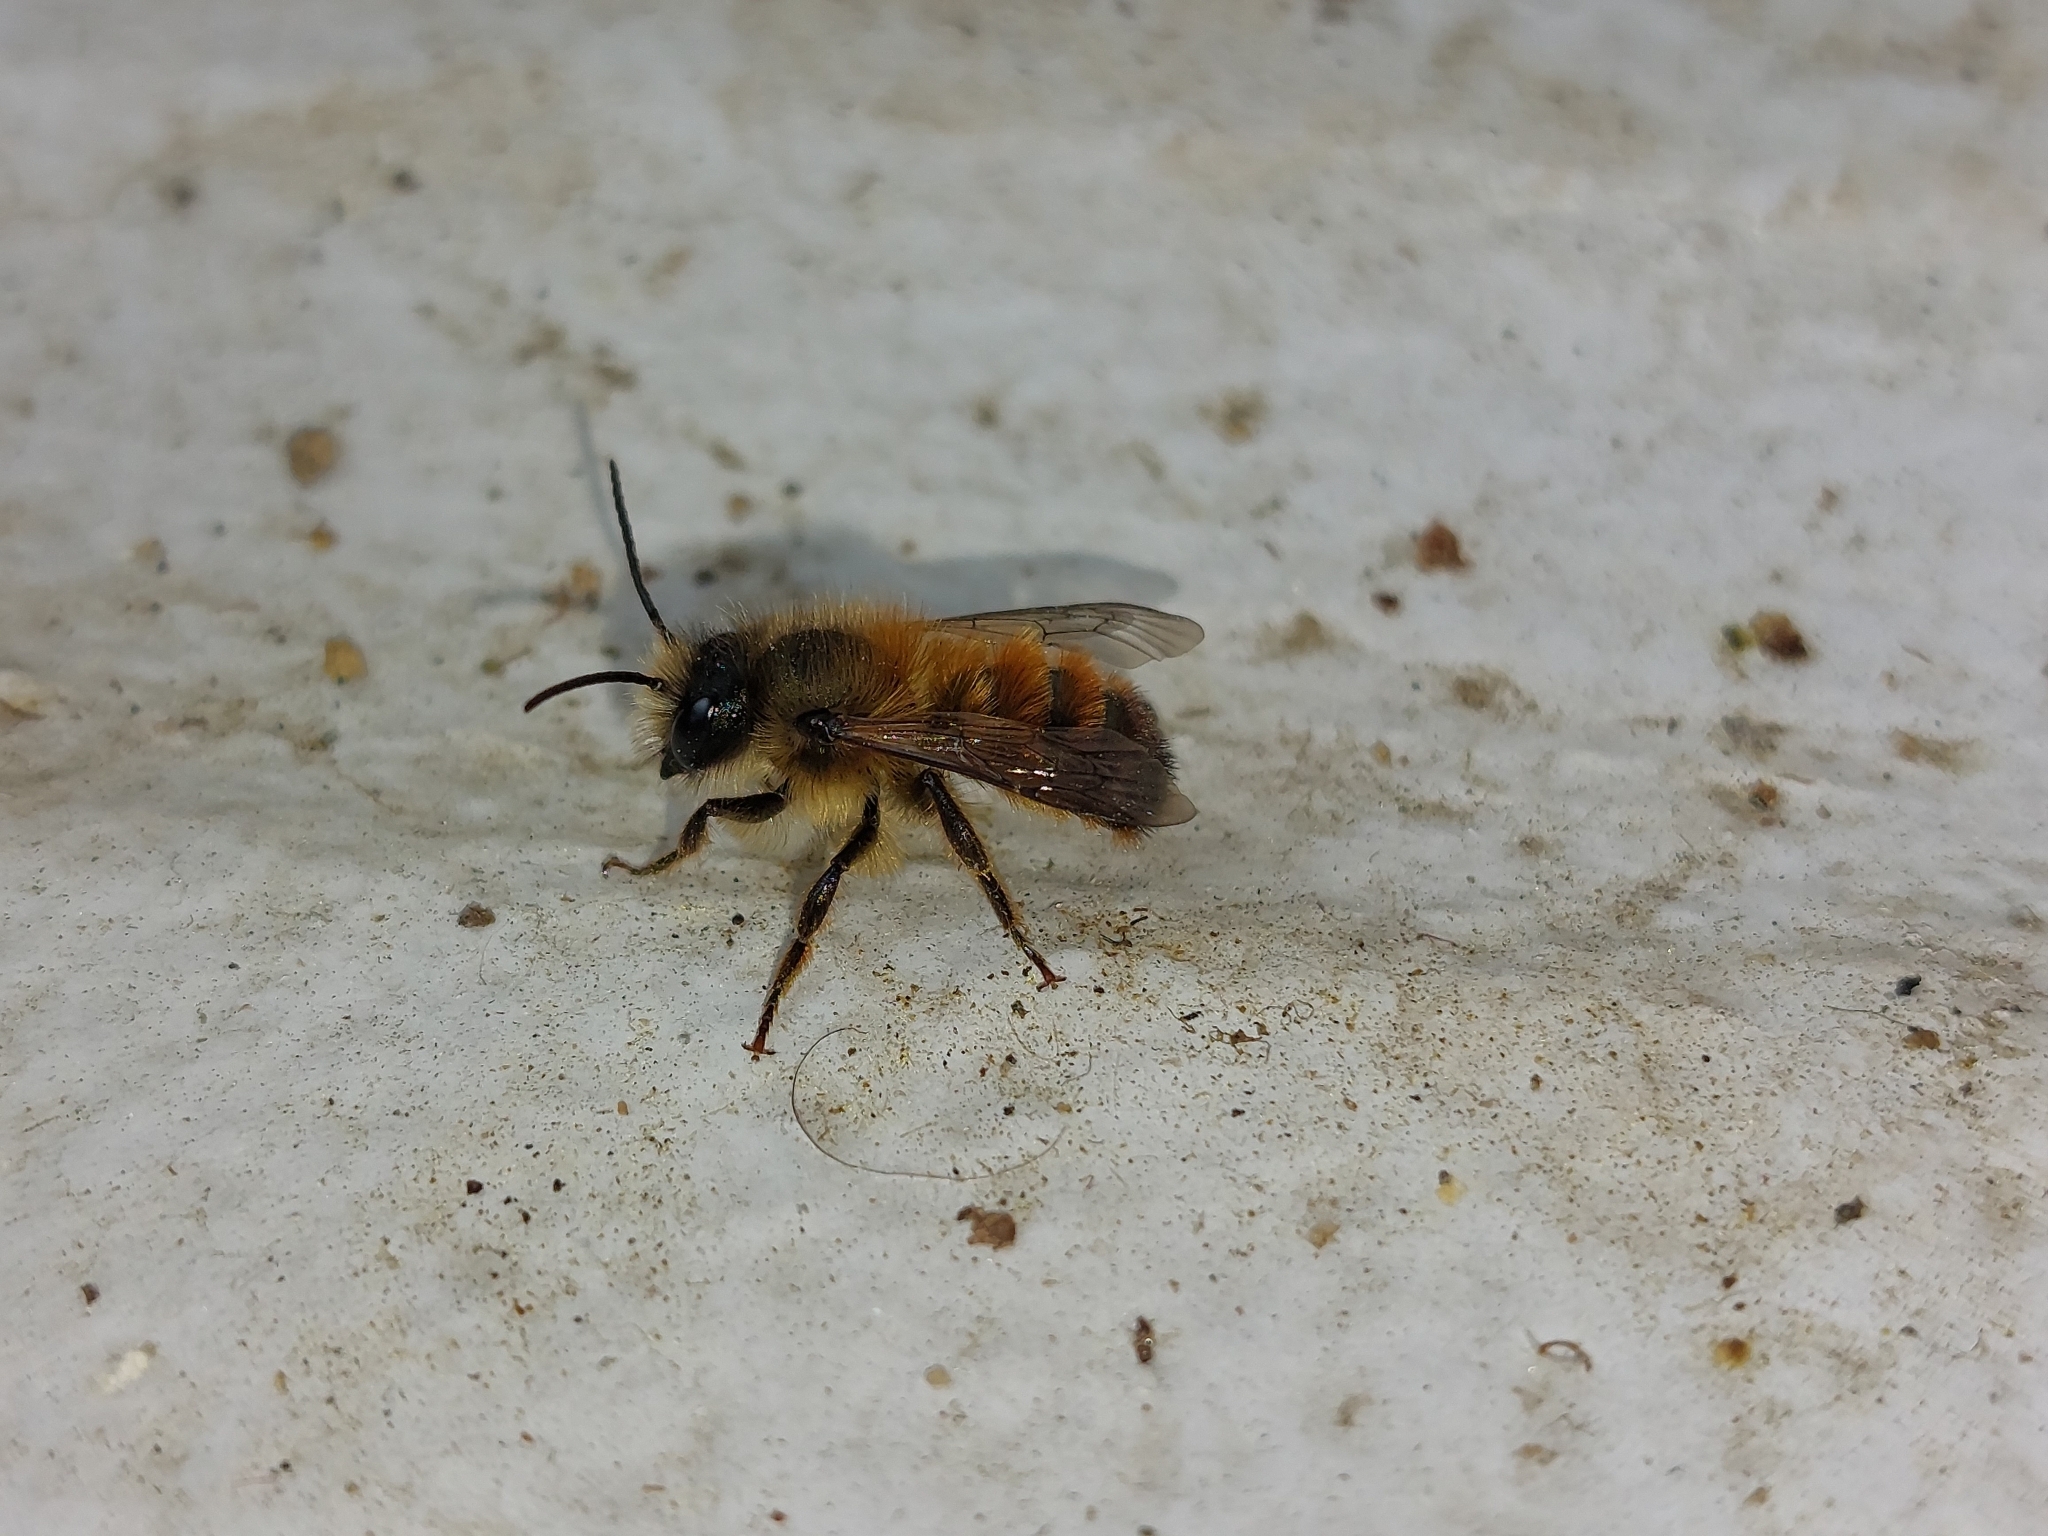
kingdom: Animalia
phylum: Arthropoda
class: Insecta
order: Hymenoptera
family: Megachilidae
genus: Osmia
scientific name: Osmia bicornis
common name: Red mason bee
